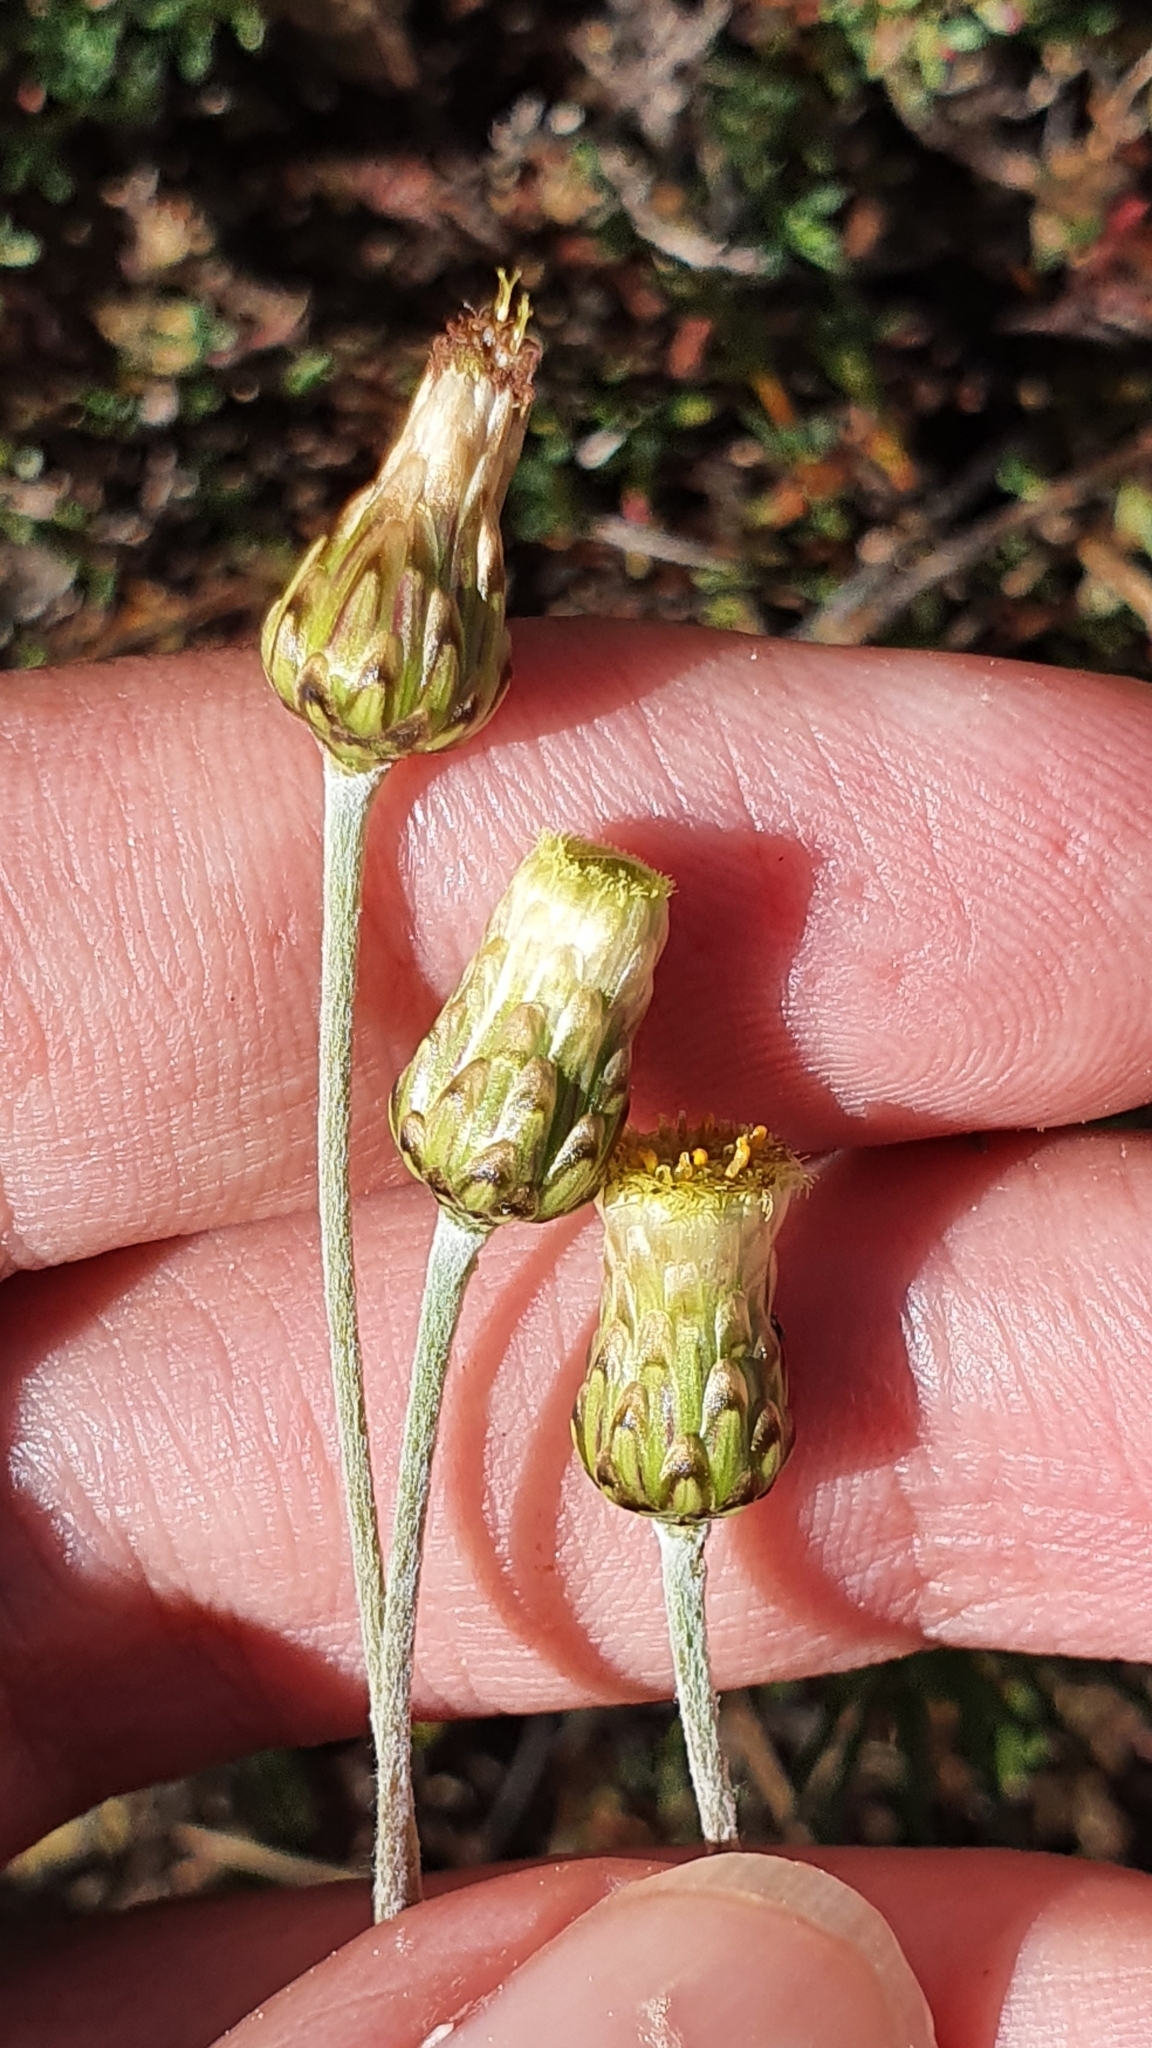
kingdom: Plantae
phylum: Tracheophyta
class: Magnoliopsida
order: Asterales
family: Asteraceae
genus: Phagnalon
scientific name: Phagnalon rupestre
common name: Rock phagnalon
